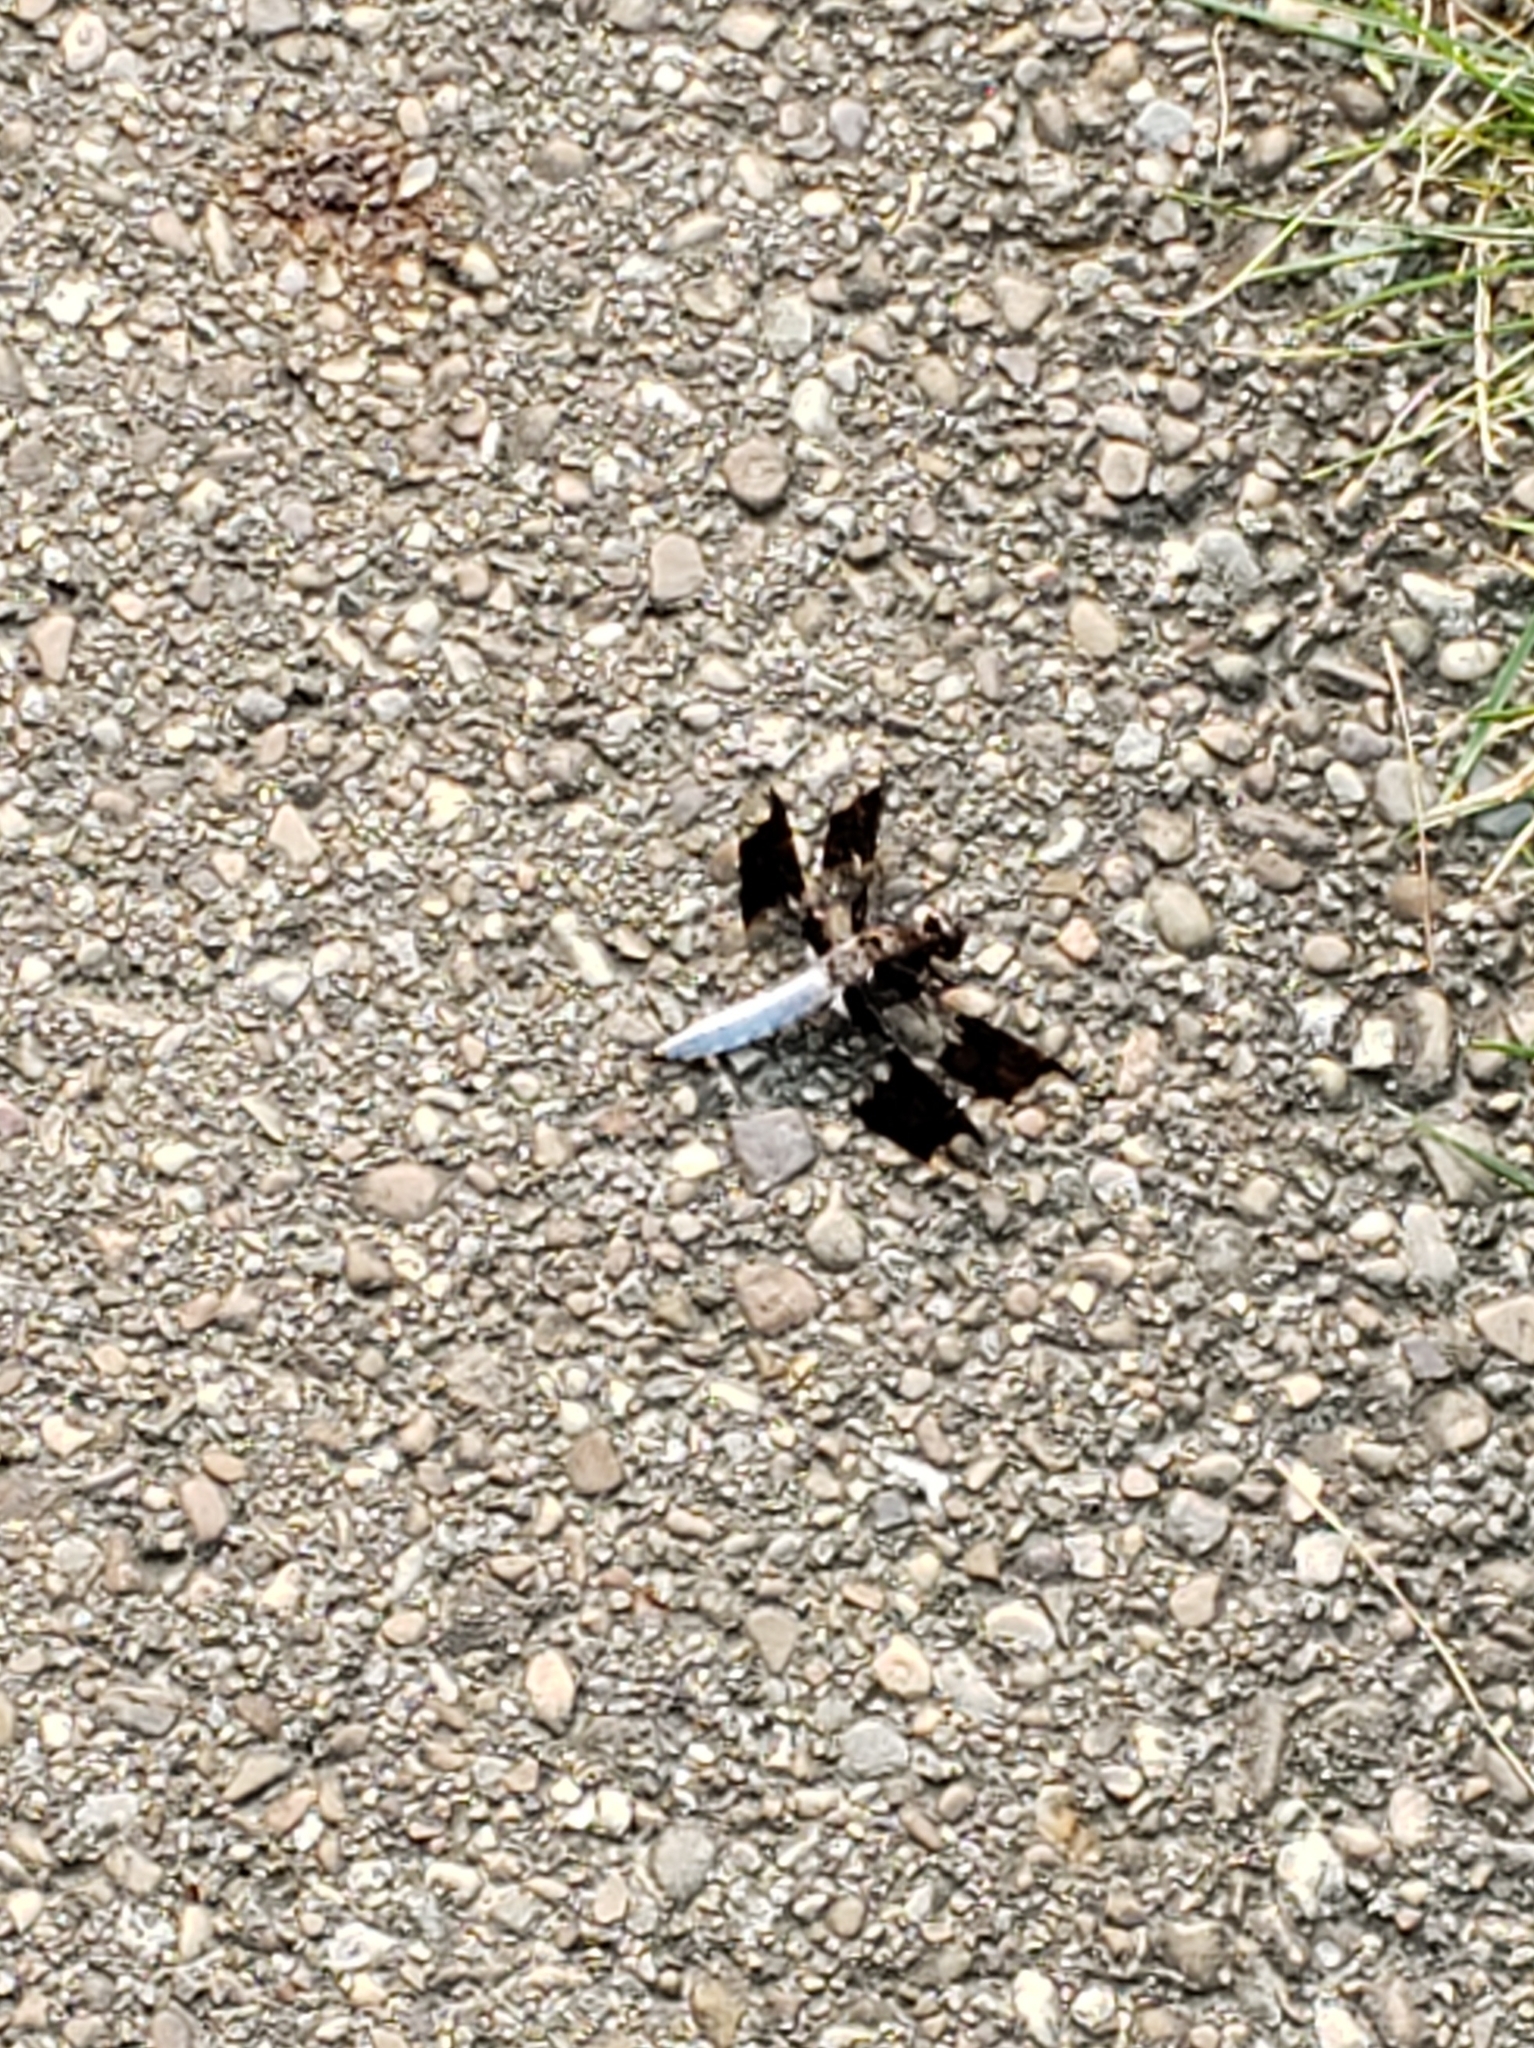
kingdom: Animalia
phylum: Arthropoda
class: Insecta
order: Odonata
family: Libellulidae
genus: Plathemis
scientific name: Plathemis lydia
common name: Common whitetail
